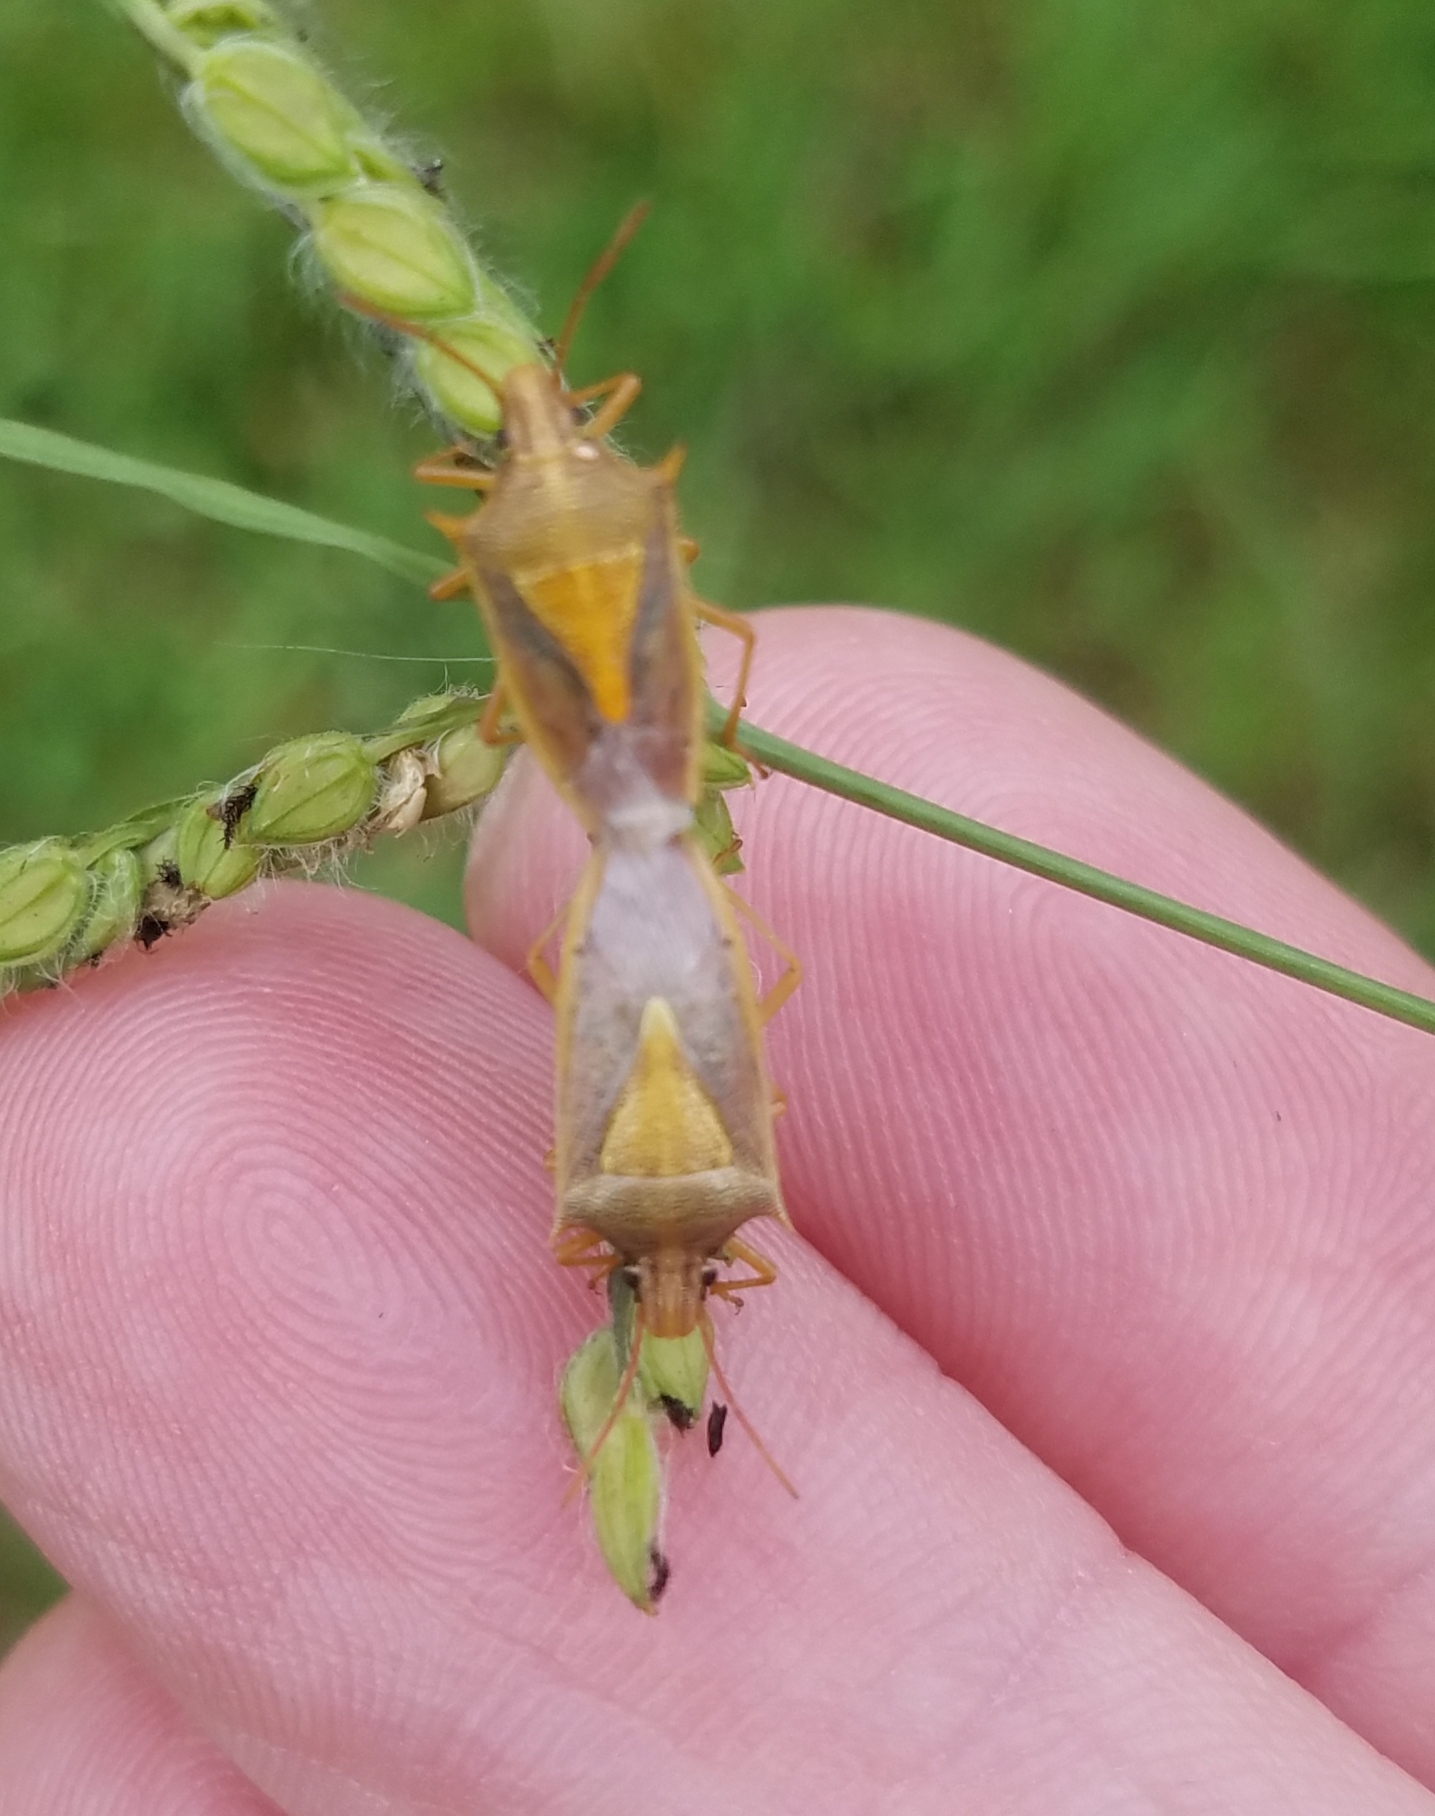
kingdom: Animalia
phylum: Arthropoda
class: Insecta
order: Hemiptera
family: Pentatomidae
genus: Oebalus
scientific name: Oebalus pugnax
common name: Rice stink bug
